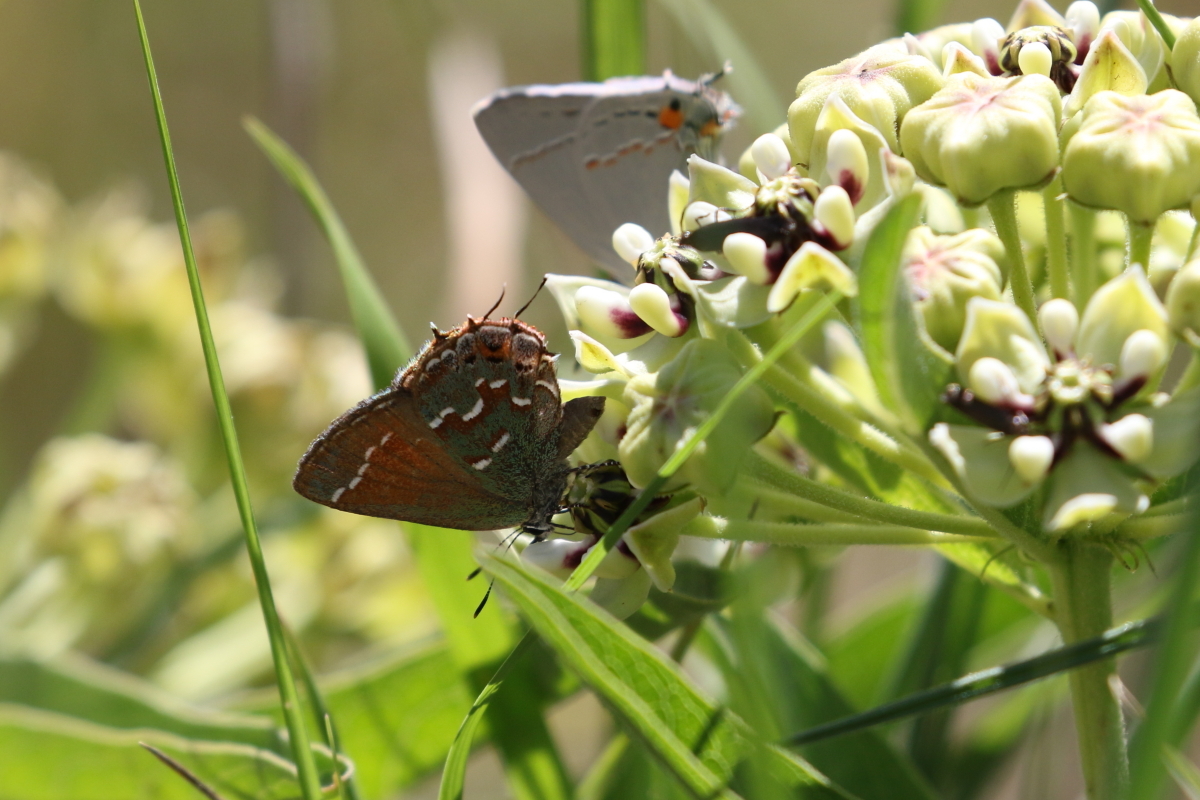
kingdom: Animalia
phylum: Arthropoda
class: Insecta
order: Lepidoptera
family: Lycaenidae
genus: Mitoura
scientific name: Mitoura gryneus
